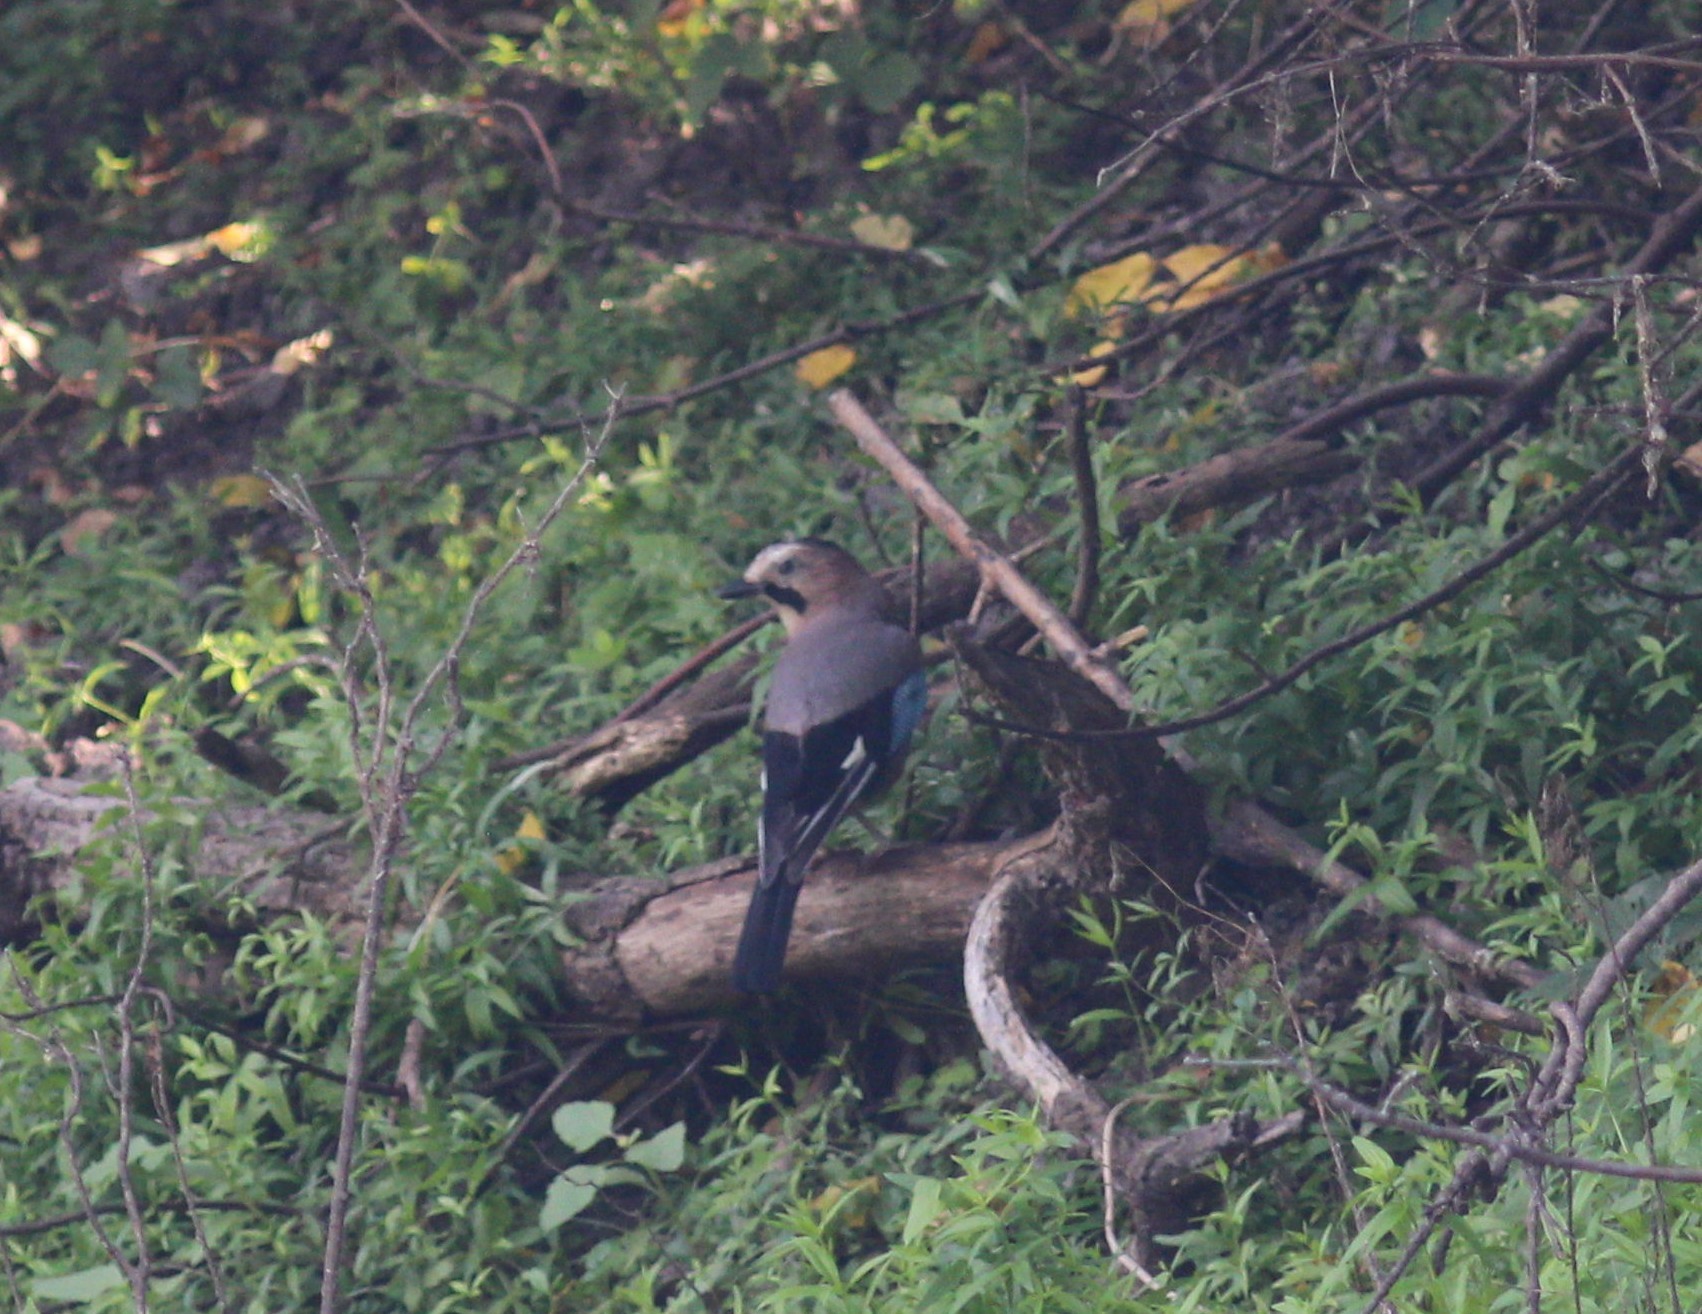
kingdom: Animalia
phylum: Chordata
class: Aves
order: Passeriformes
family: Corvidae
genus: Garrulus
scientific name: Garrulus glandarius
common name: Eurasian jay
